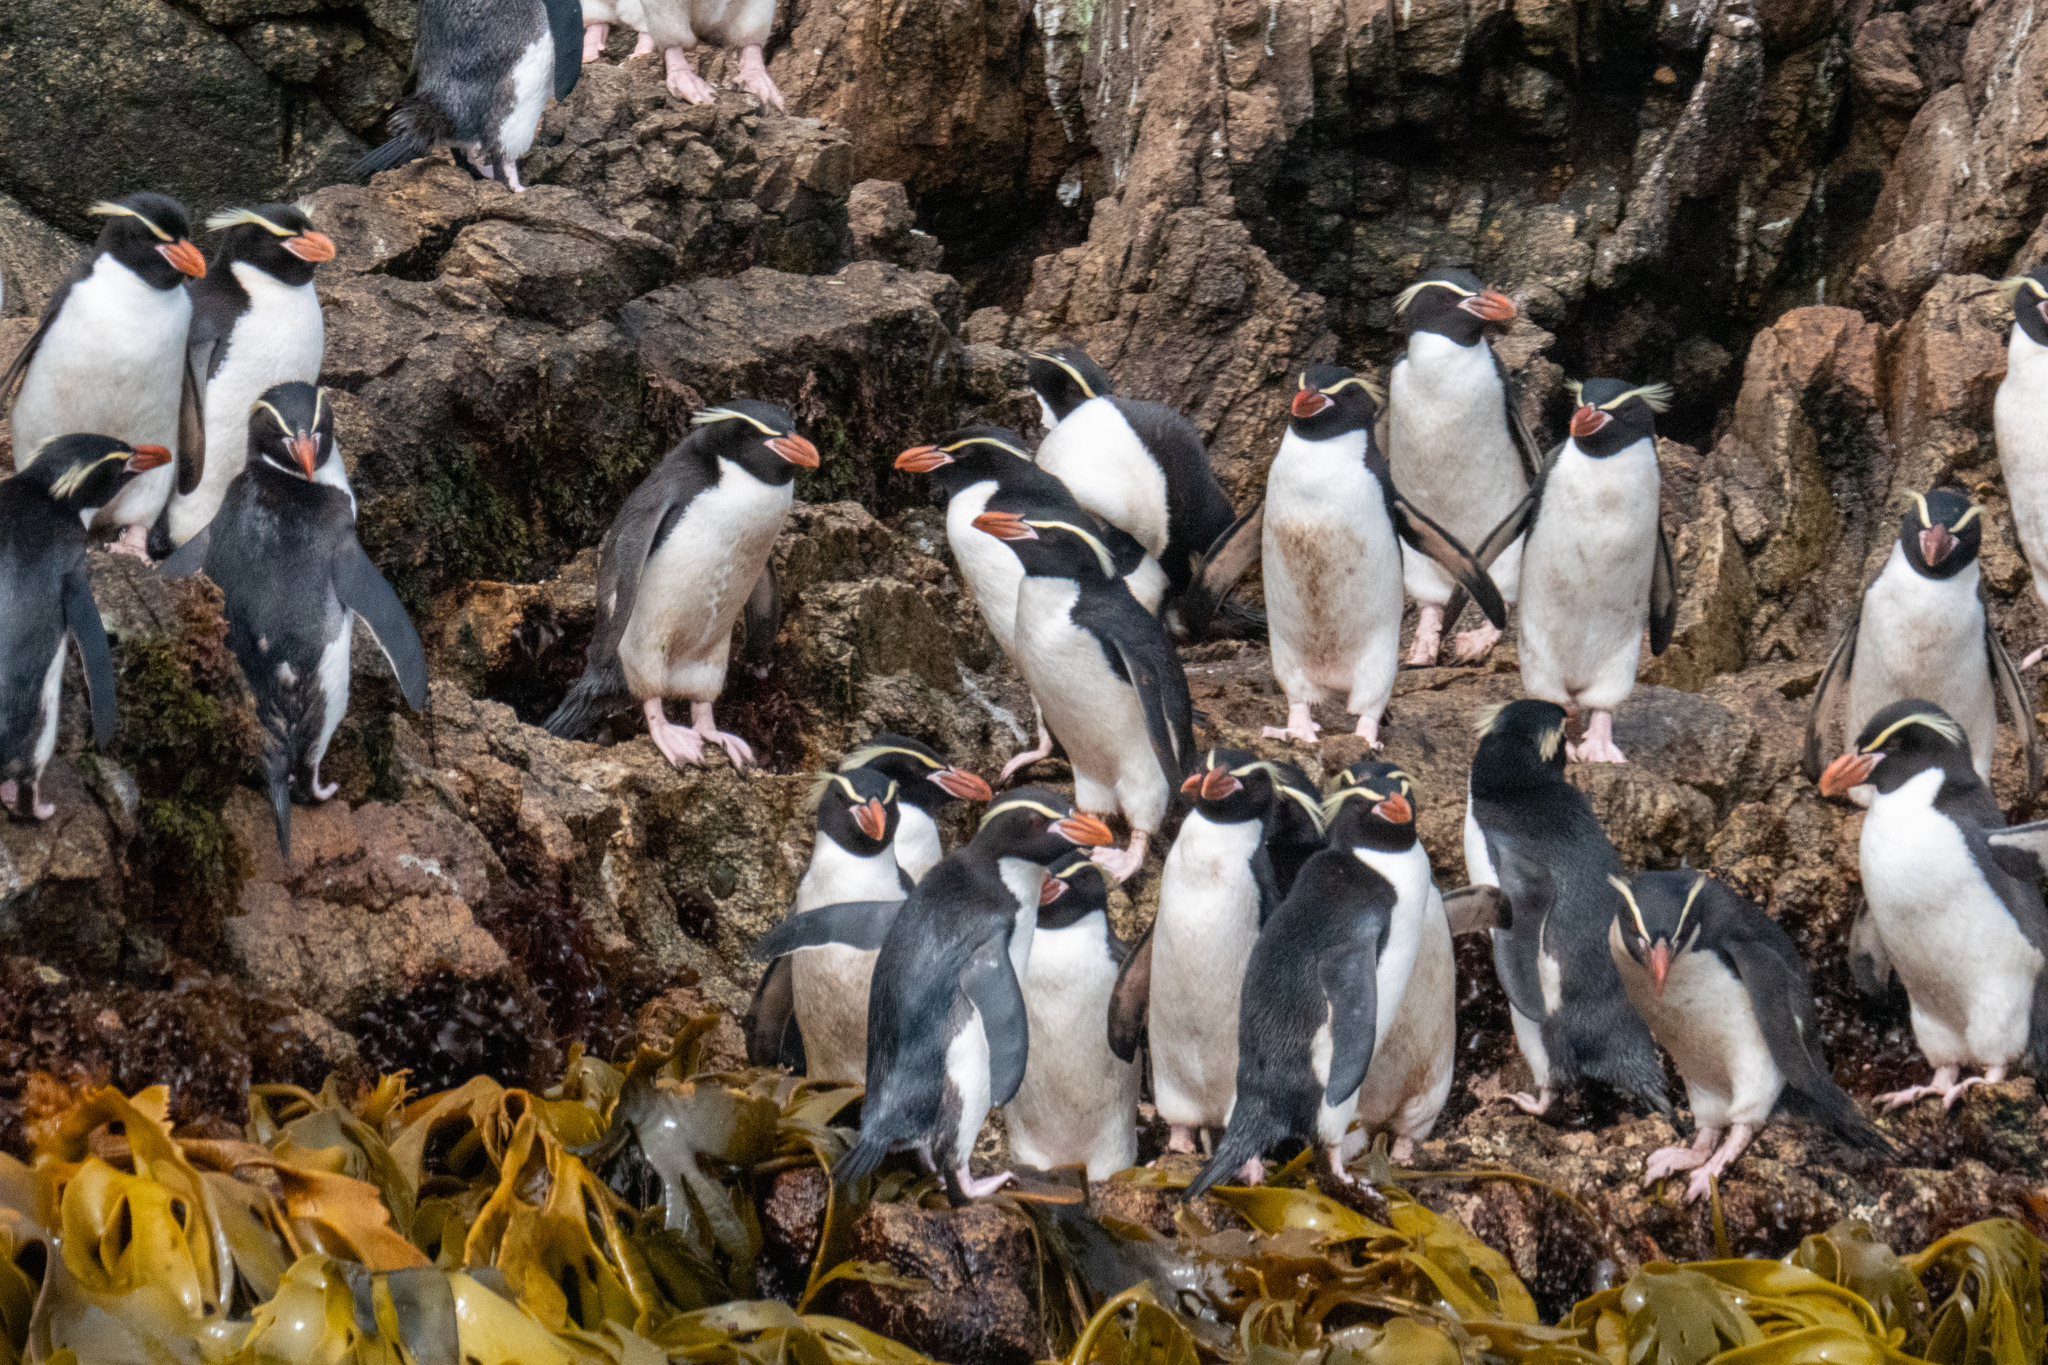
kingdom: Animalia
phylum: Chordata
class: Aves
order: Sphenisciformes
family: Spheniscidae
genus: Eudyptes
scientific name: Eudyptes robustus
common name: Snares penguin
